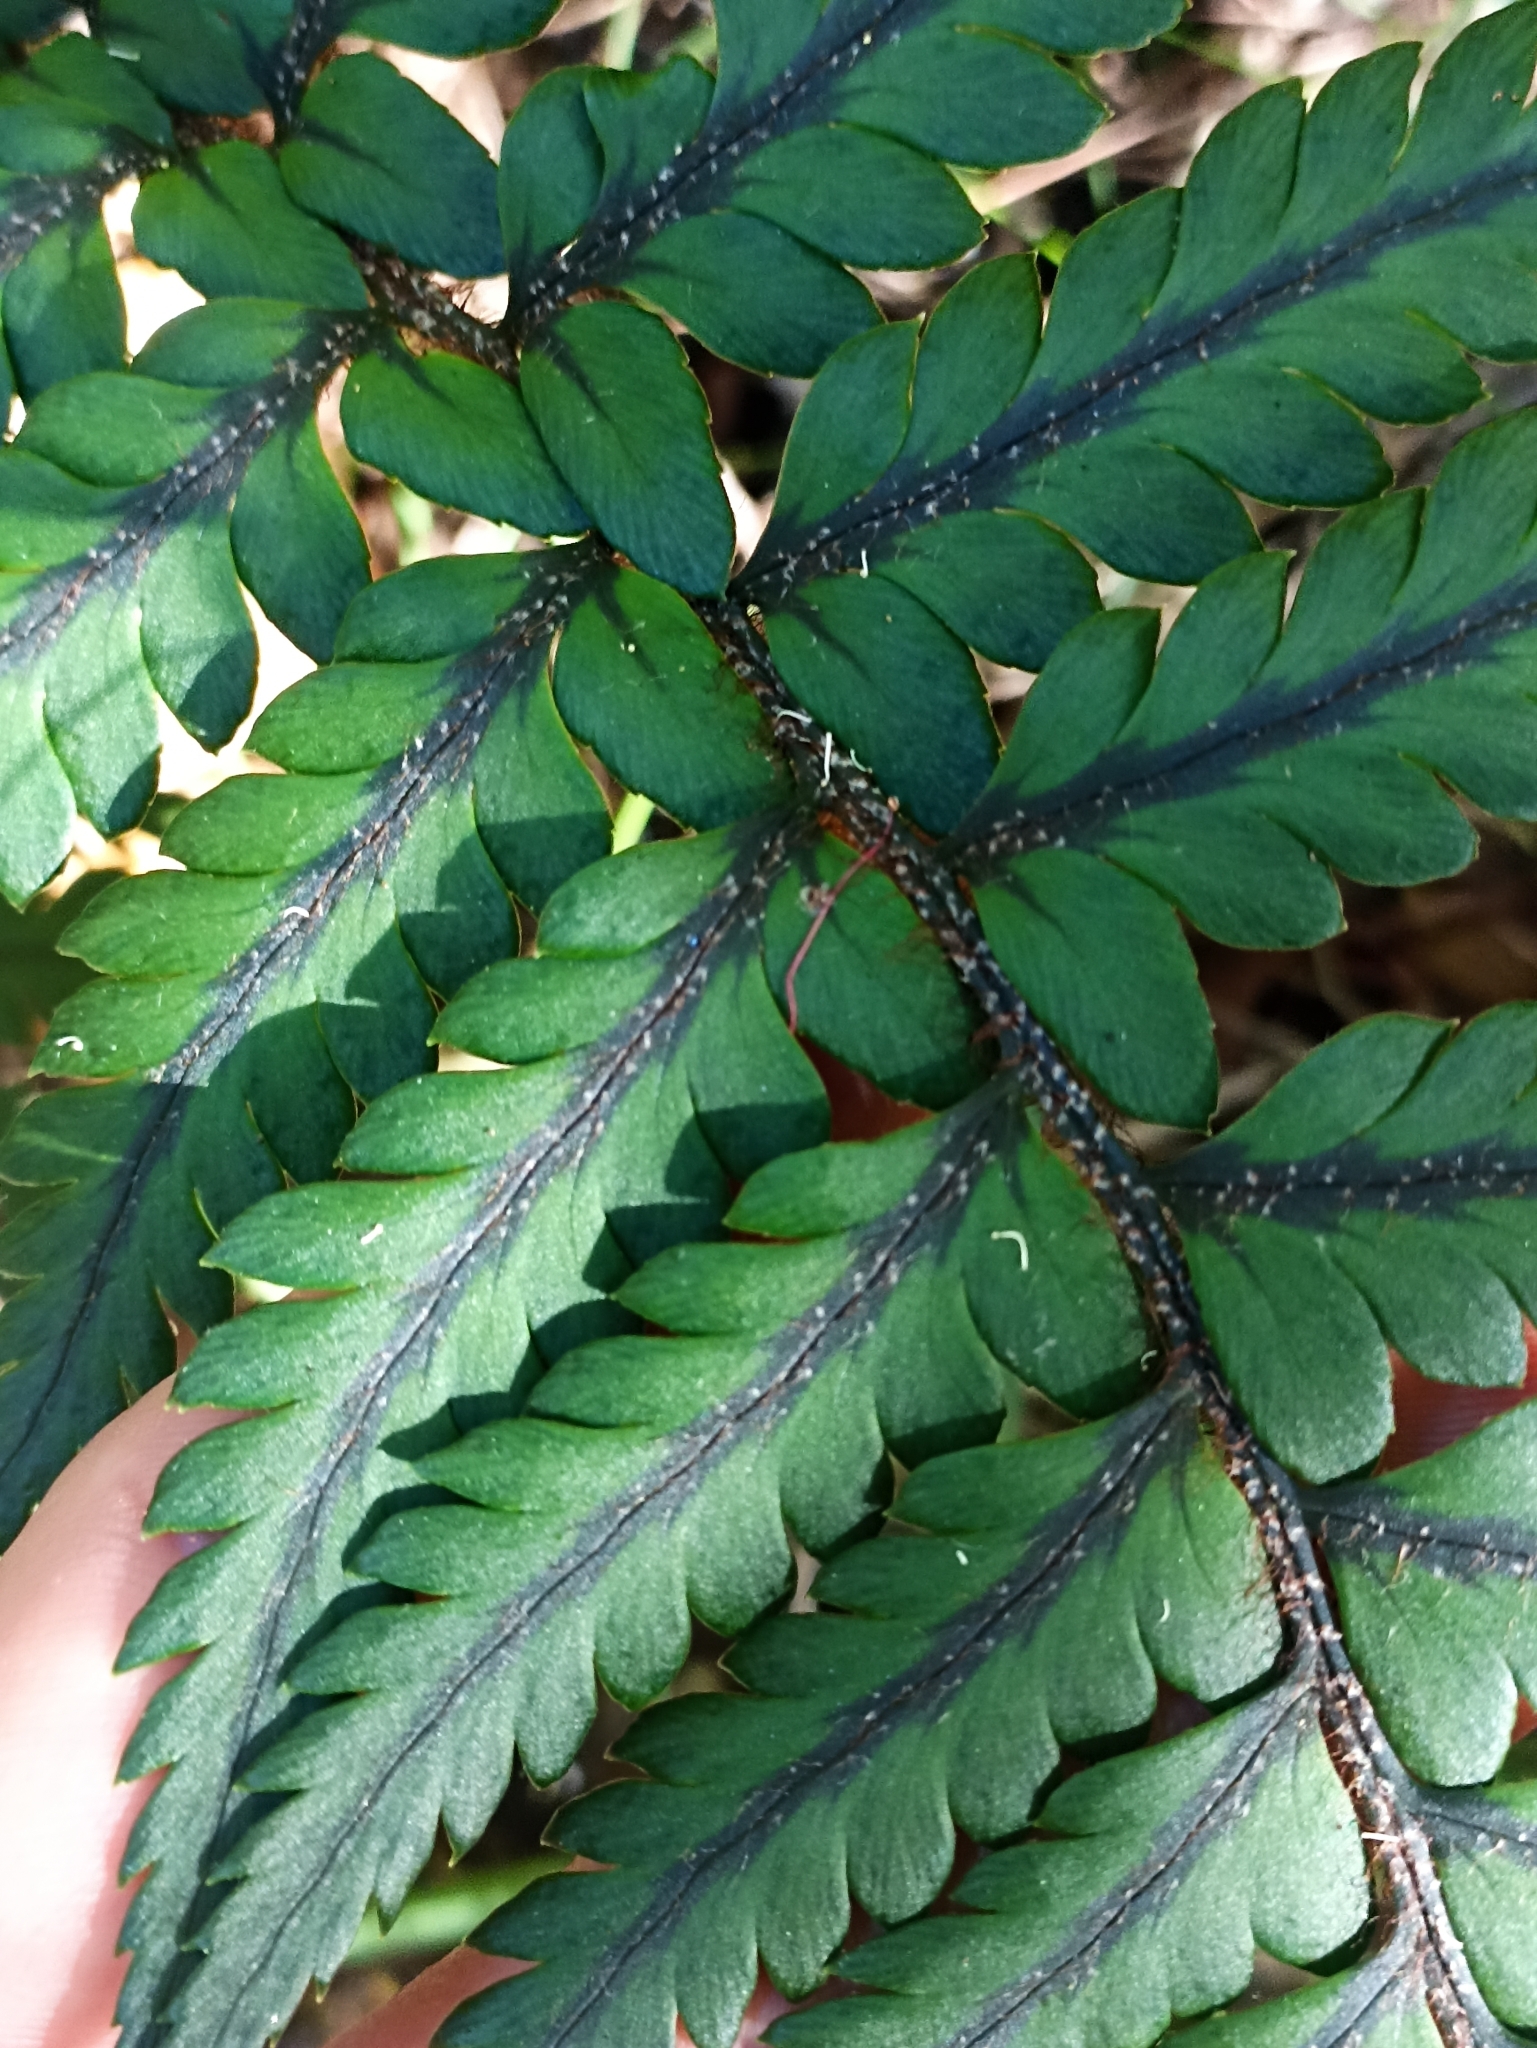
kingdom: Plantae
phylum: Tracheophyta
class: Polypodiopsida
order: Polypodiales
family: Dryopteridaceae
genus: Polystichum
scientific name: Polystichum wawranum
